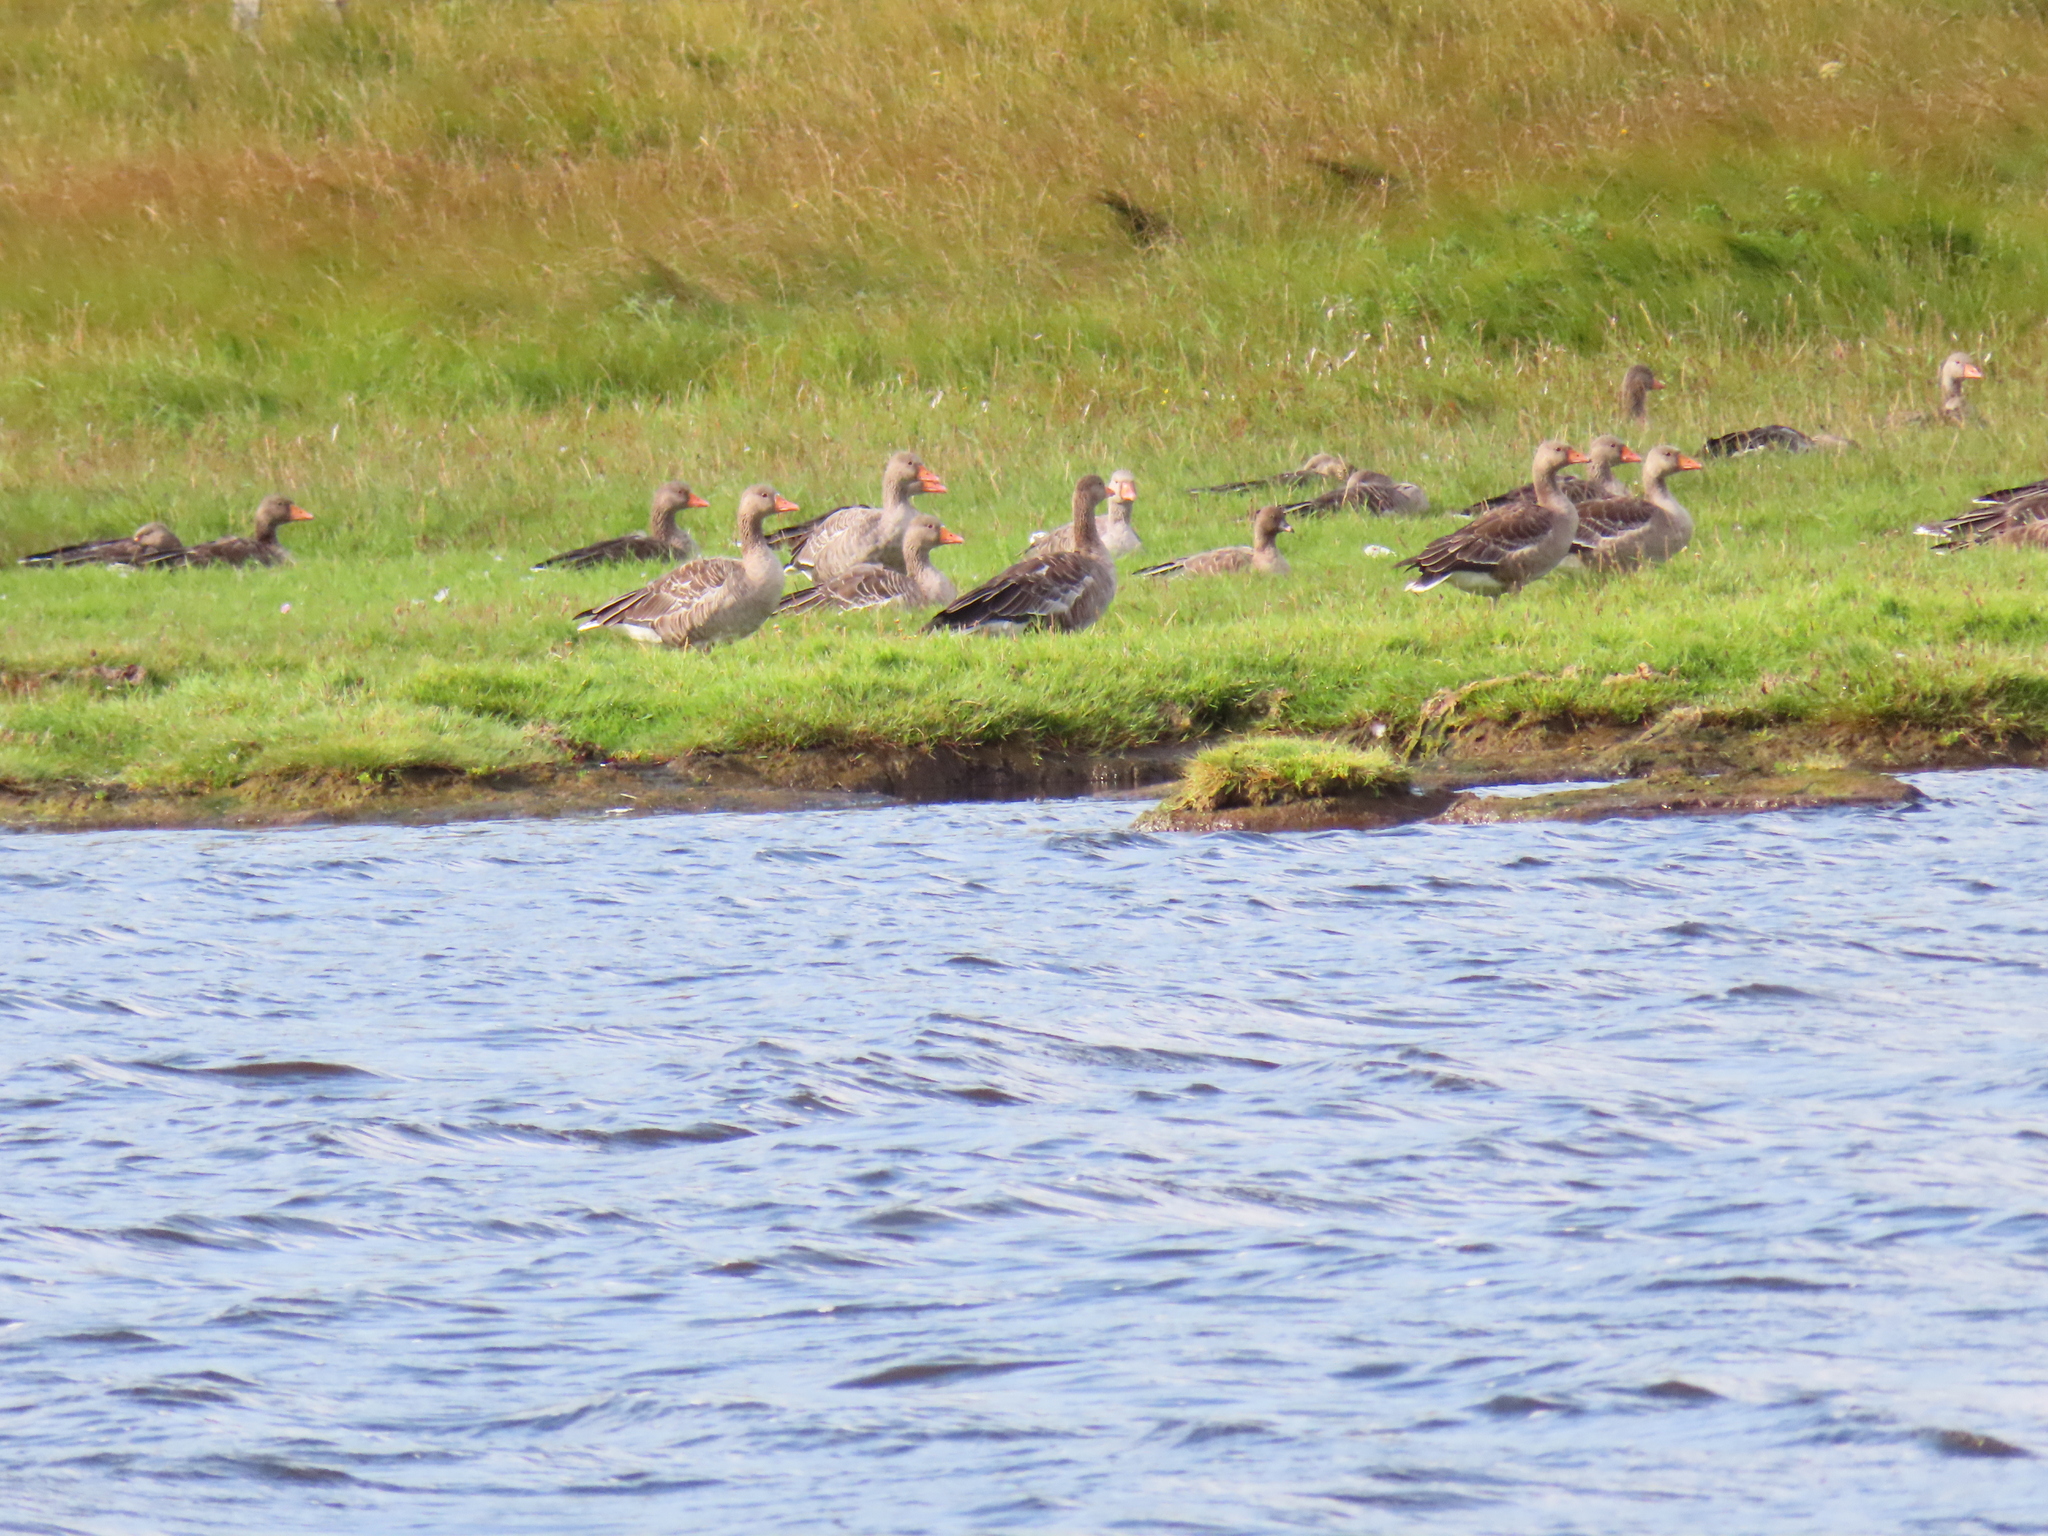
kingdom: Animalia
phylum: Chordata
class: Aves
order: Anseriformes
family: Anatidae
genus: Anser
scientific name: Anser brachyrhynchus
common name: Pink-footed goose
